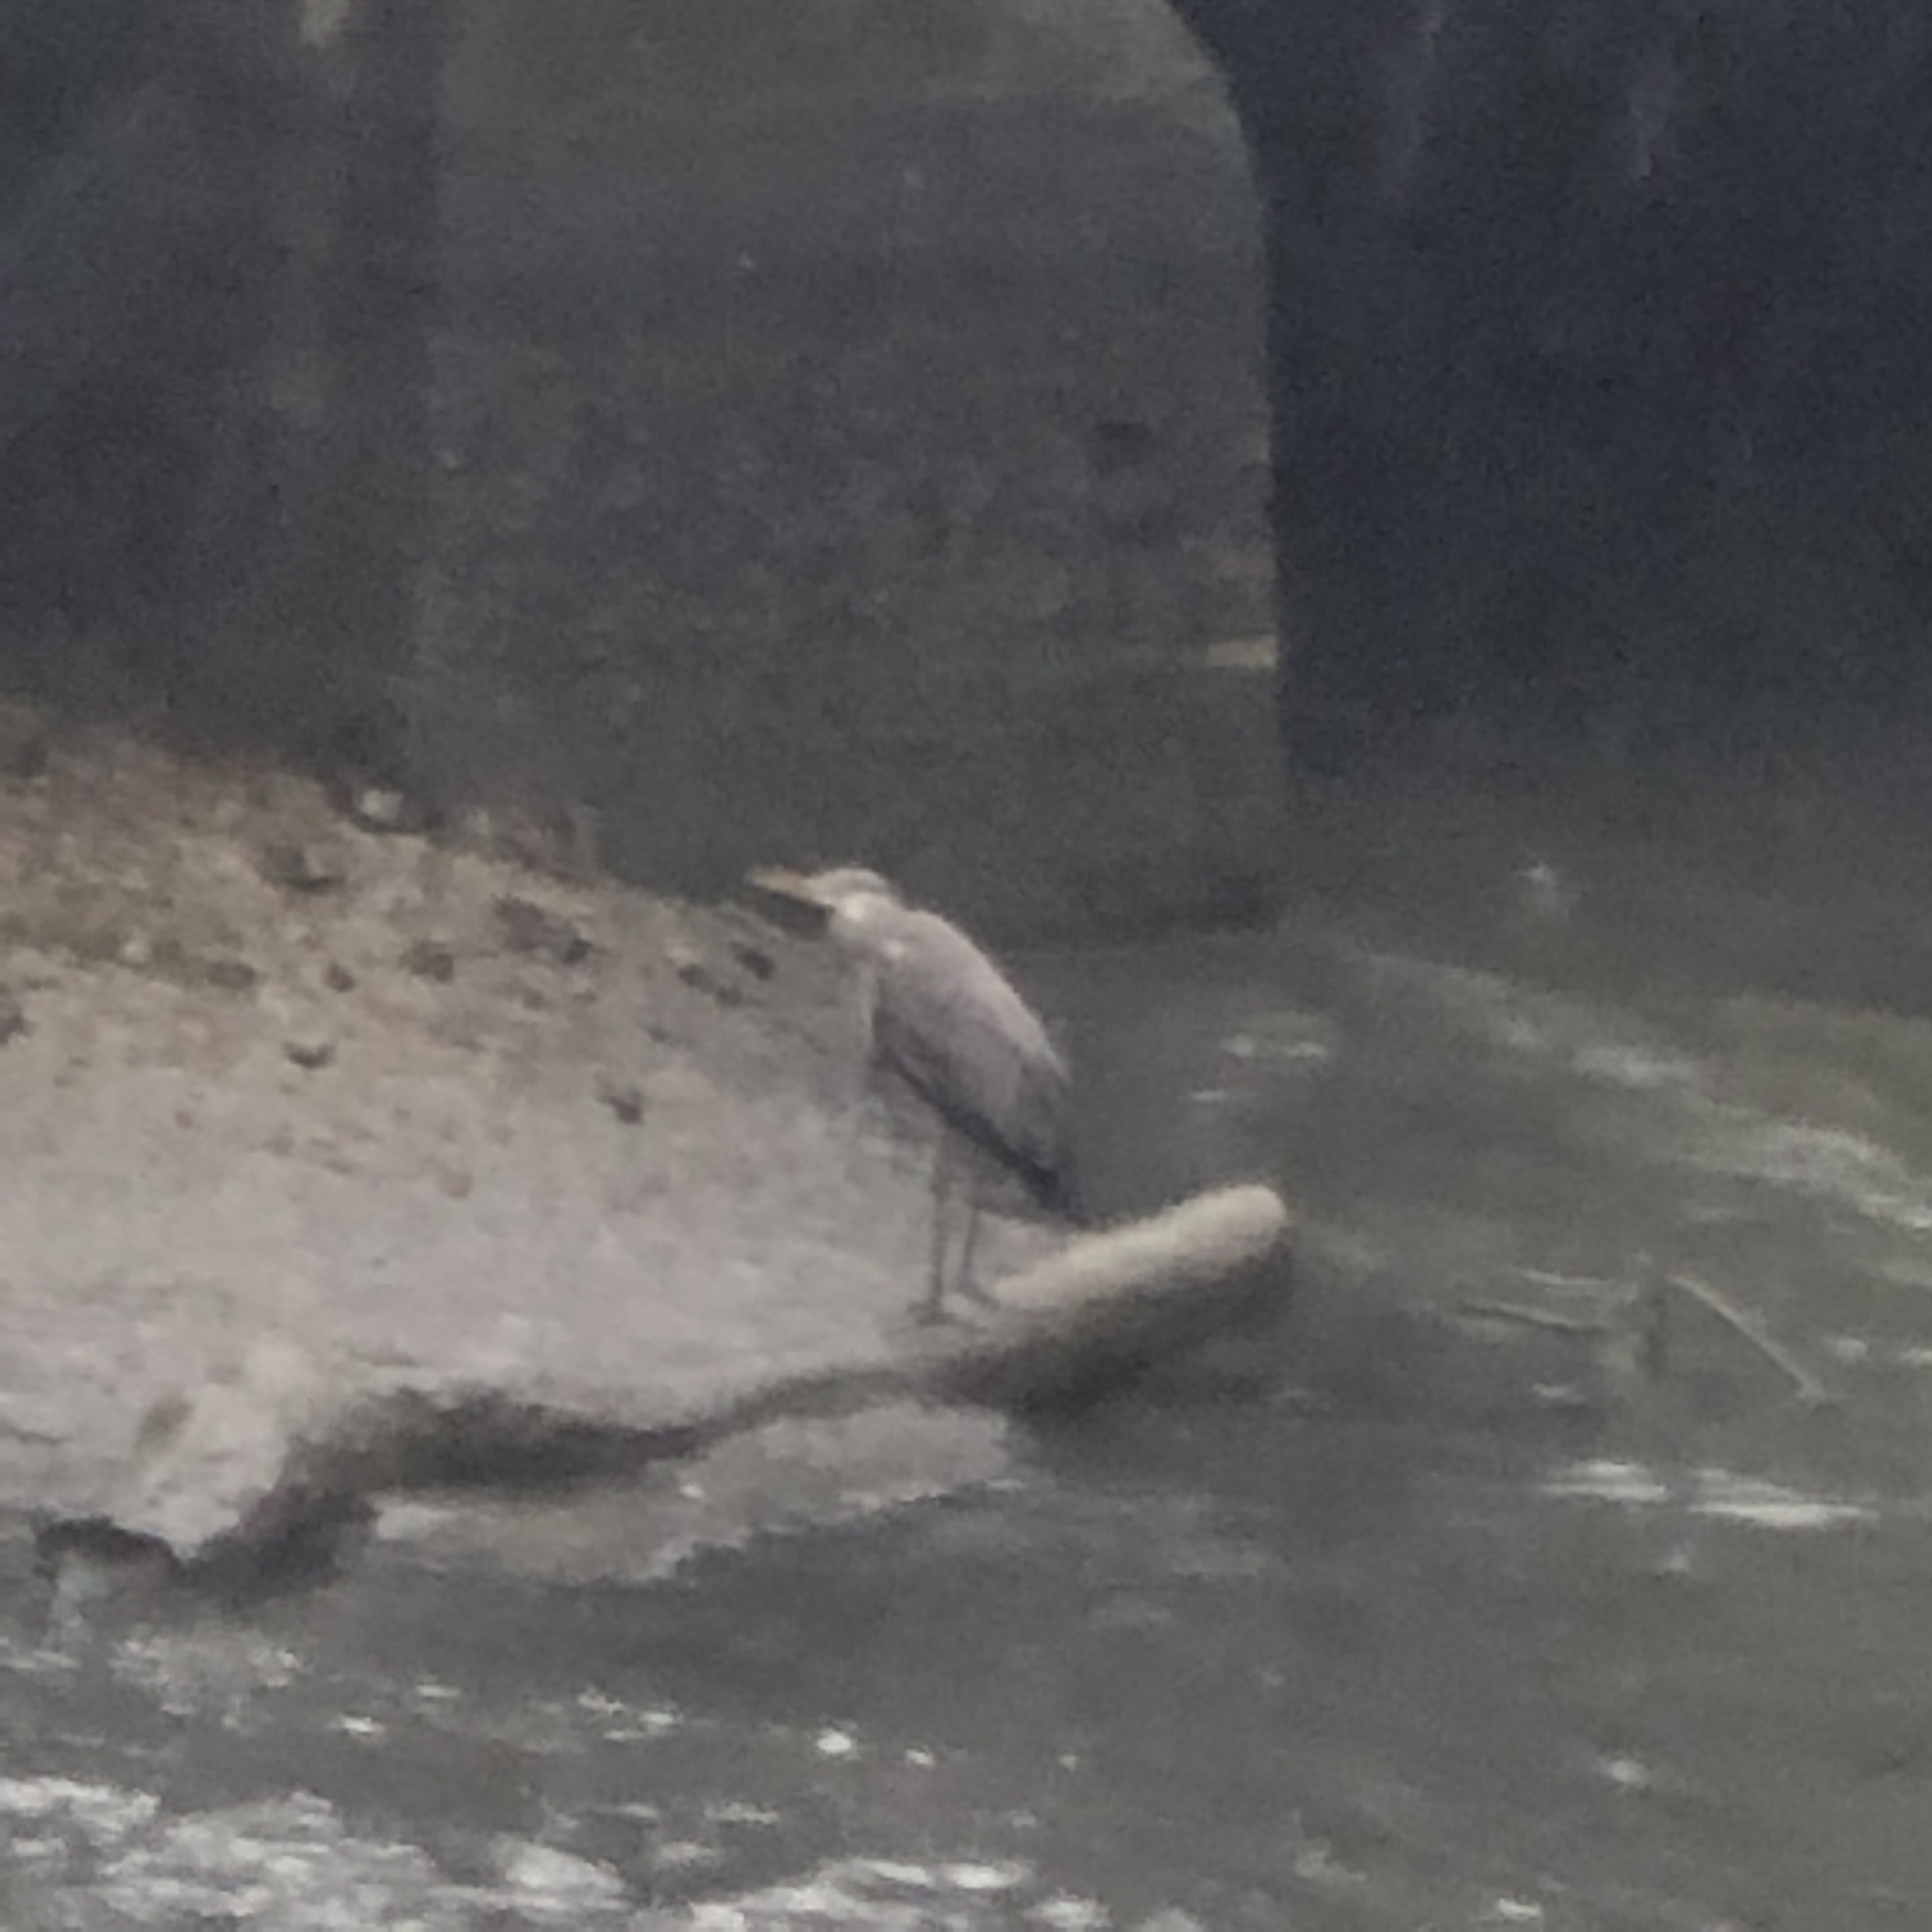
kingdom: Animalia
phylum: Chordata
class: Aves
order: Pelecaniformes
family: Ardeidae
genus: Ardea
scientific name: Ardea cinerea
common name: Grey heron
